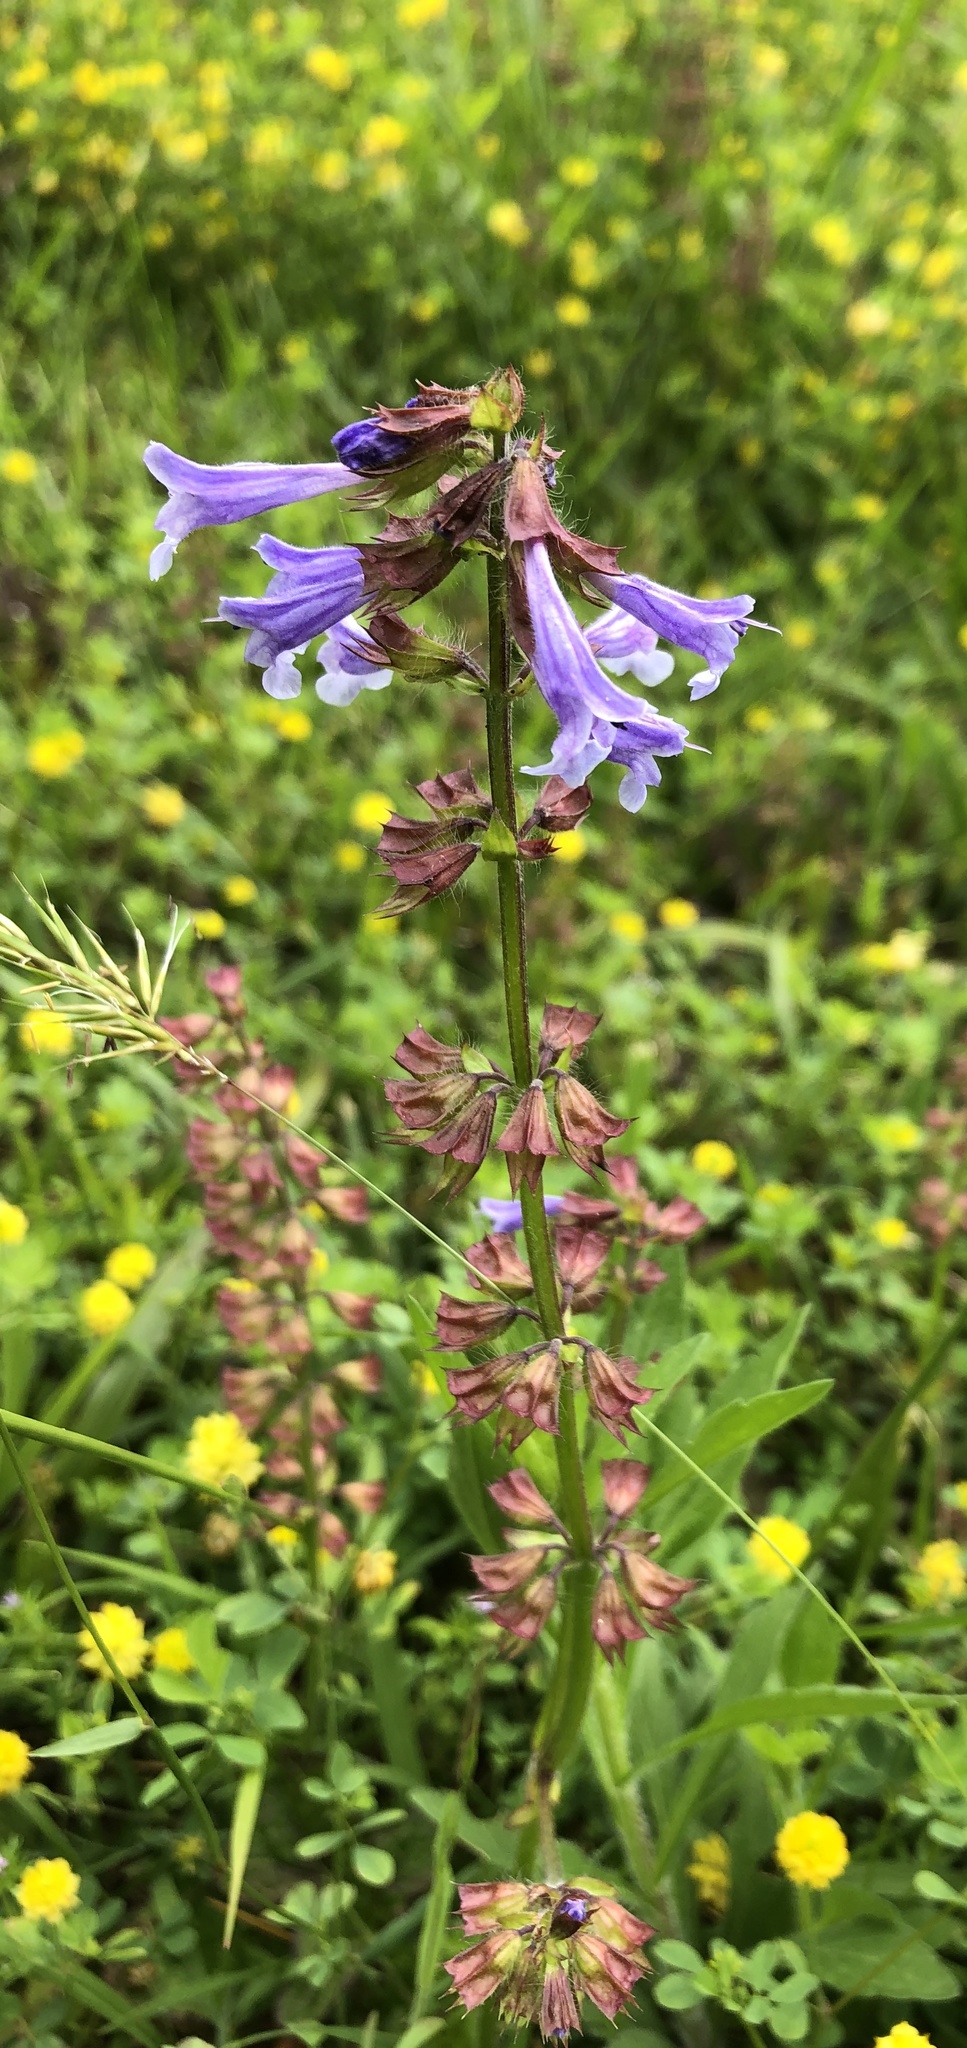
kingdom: Plantae
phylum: Tracheophyta
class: Magnoliopsida
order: Lamiales
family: Lamiaceae
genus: Salvia
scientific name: Salvia lyrata
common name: Cancerweed
